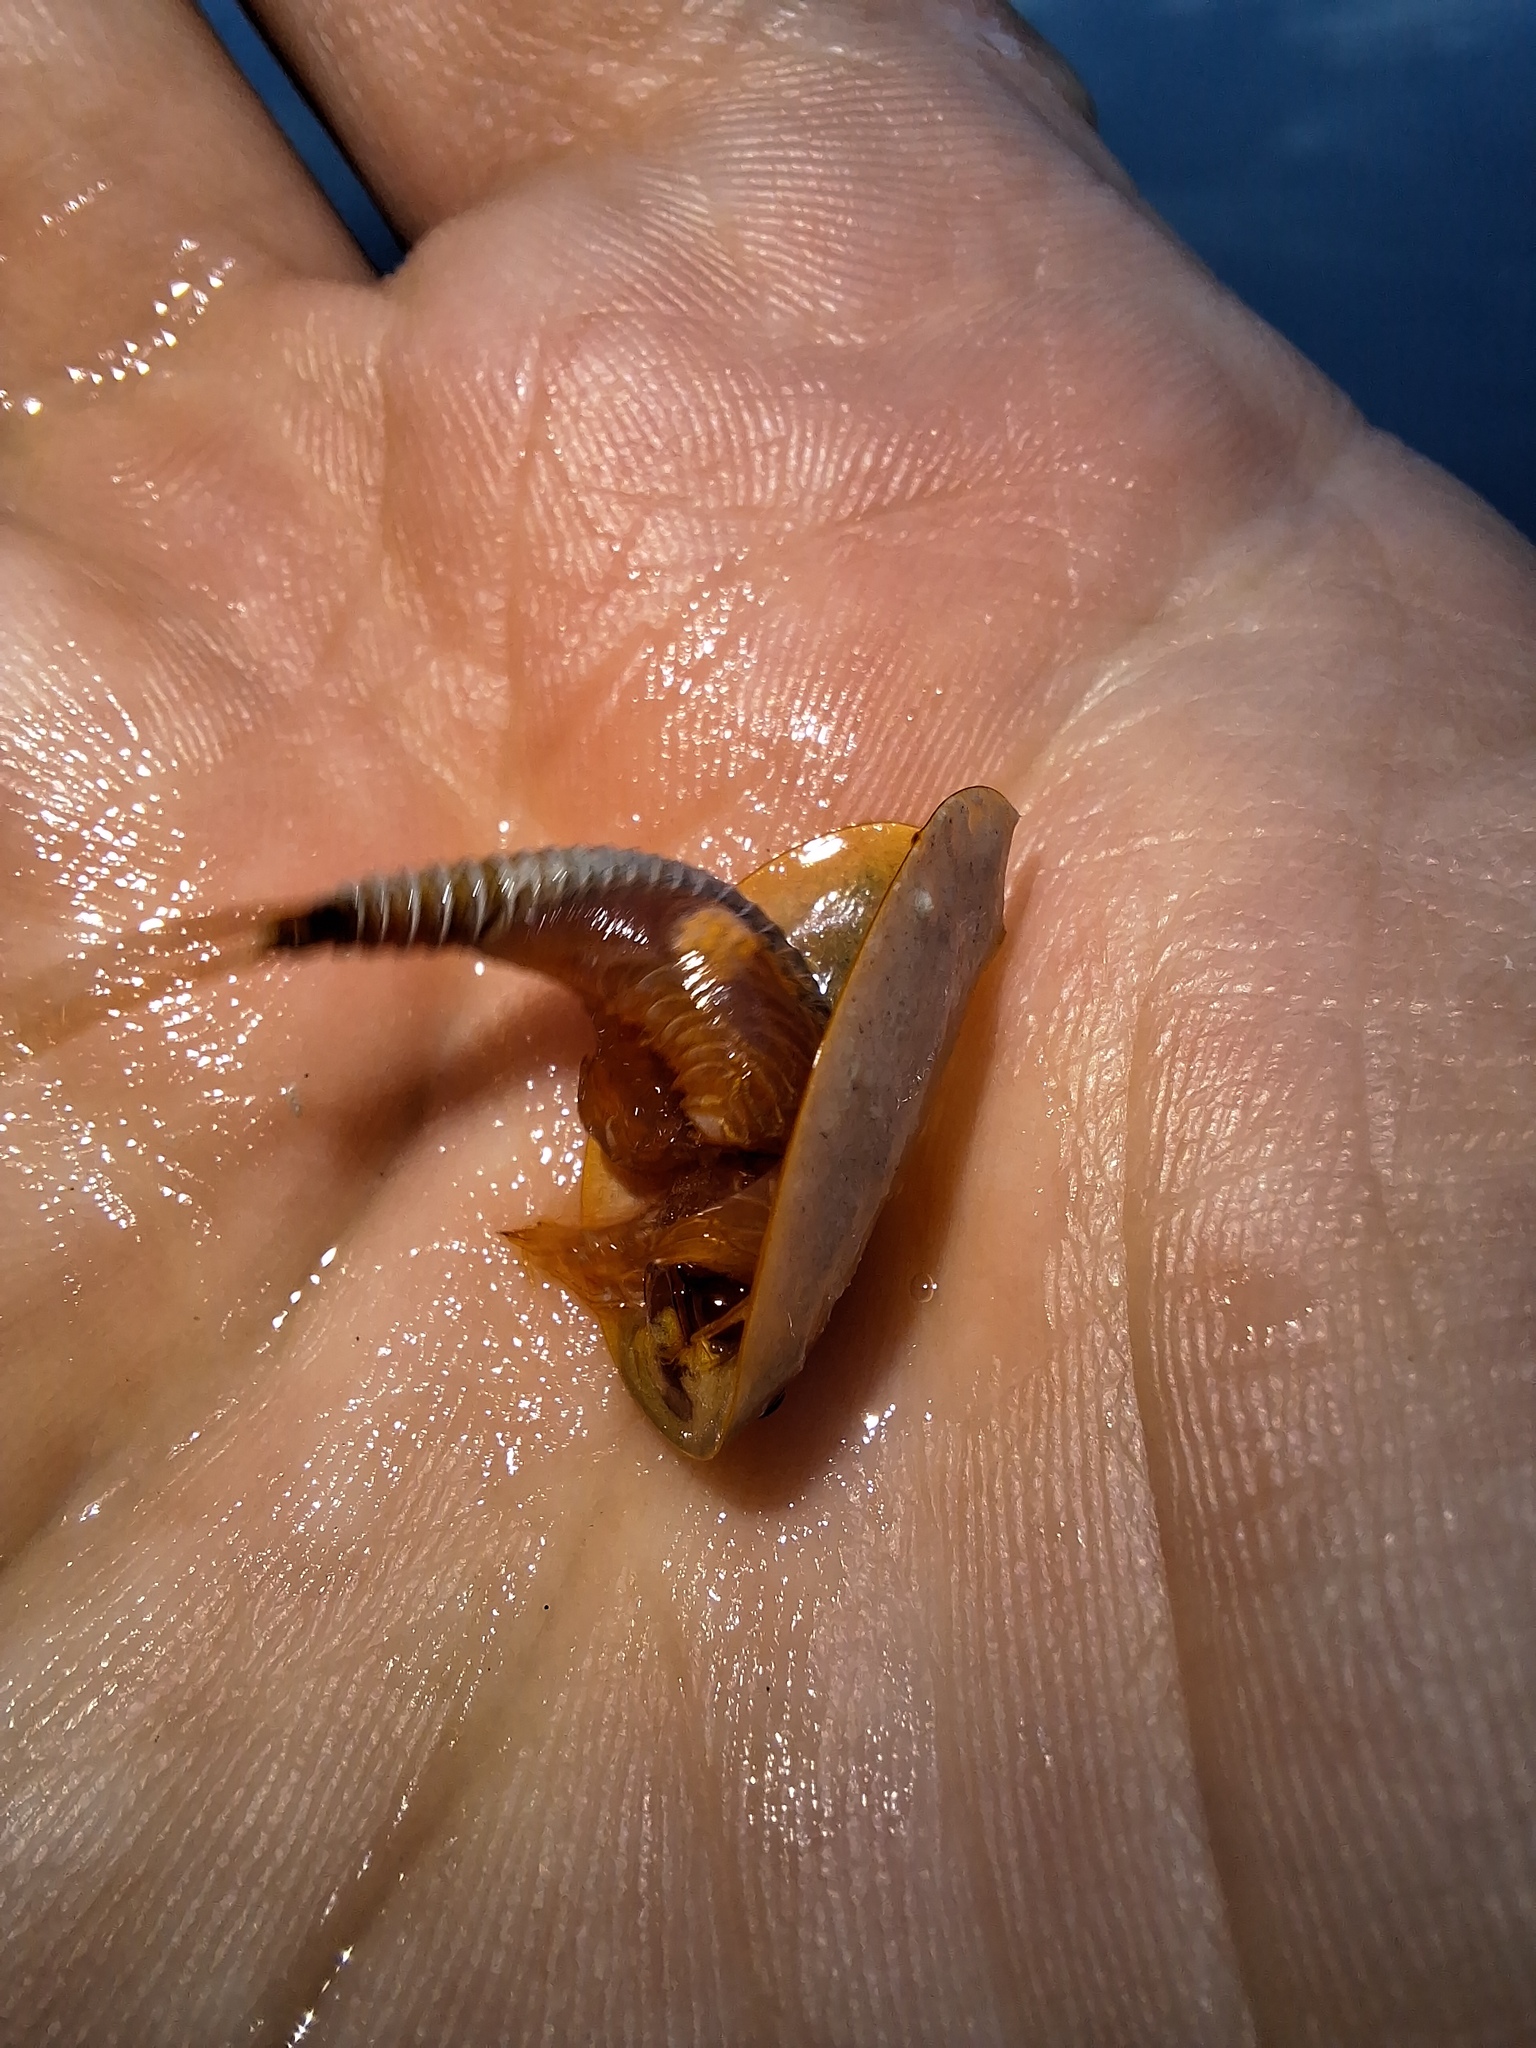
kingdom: Animalia
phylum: Arthropoda
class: Branchiopoda
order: Notostraca
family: Triopsidae
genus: Lepidurus
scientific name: Lepidurus apus
